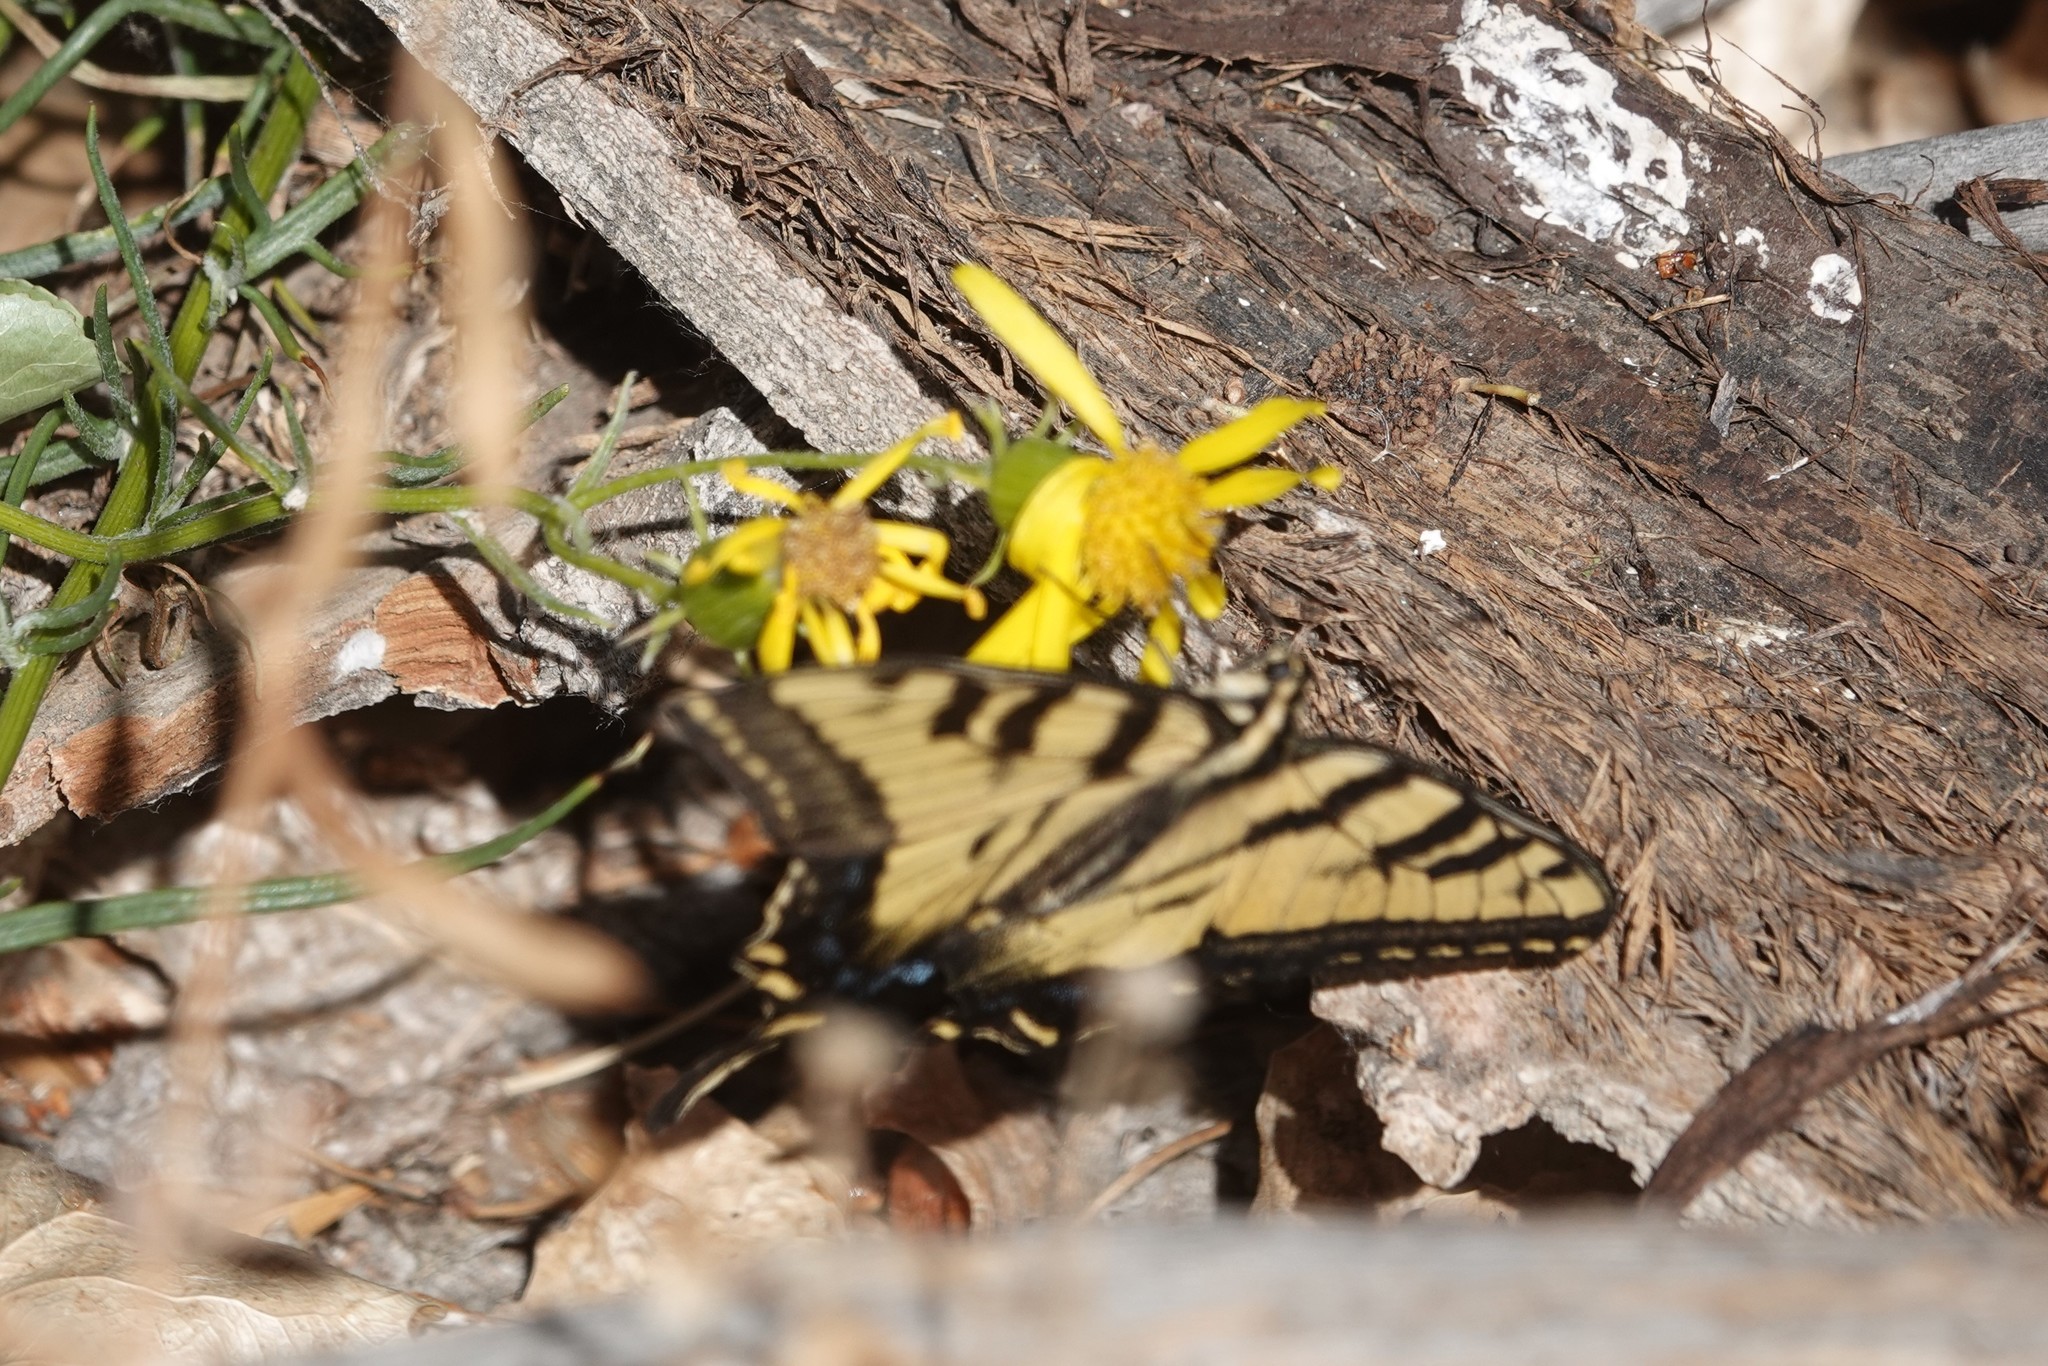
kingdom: Animalia
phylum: Arthropoda
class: Insecta
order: Lepidoptera
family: Papilionidae
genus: Papilio
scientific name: Papilio rutulus
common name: Western tiger swallowtail
